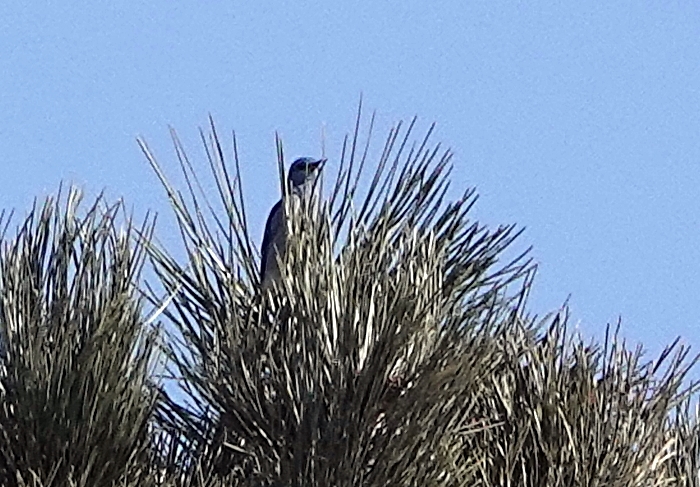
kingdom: Animalia
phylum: Chordata
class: Aves
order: Passeriformes
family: Turdidae
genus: Sialia
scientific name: Sialia currucoides
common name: Mountain bluebird
